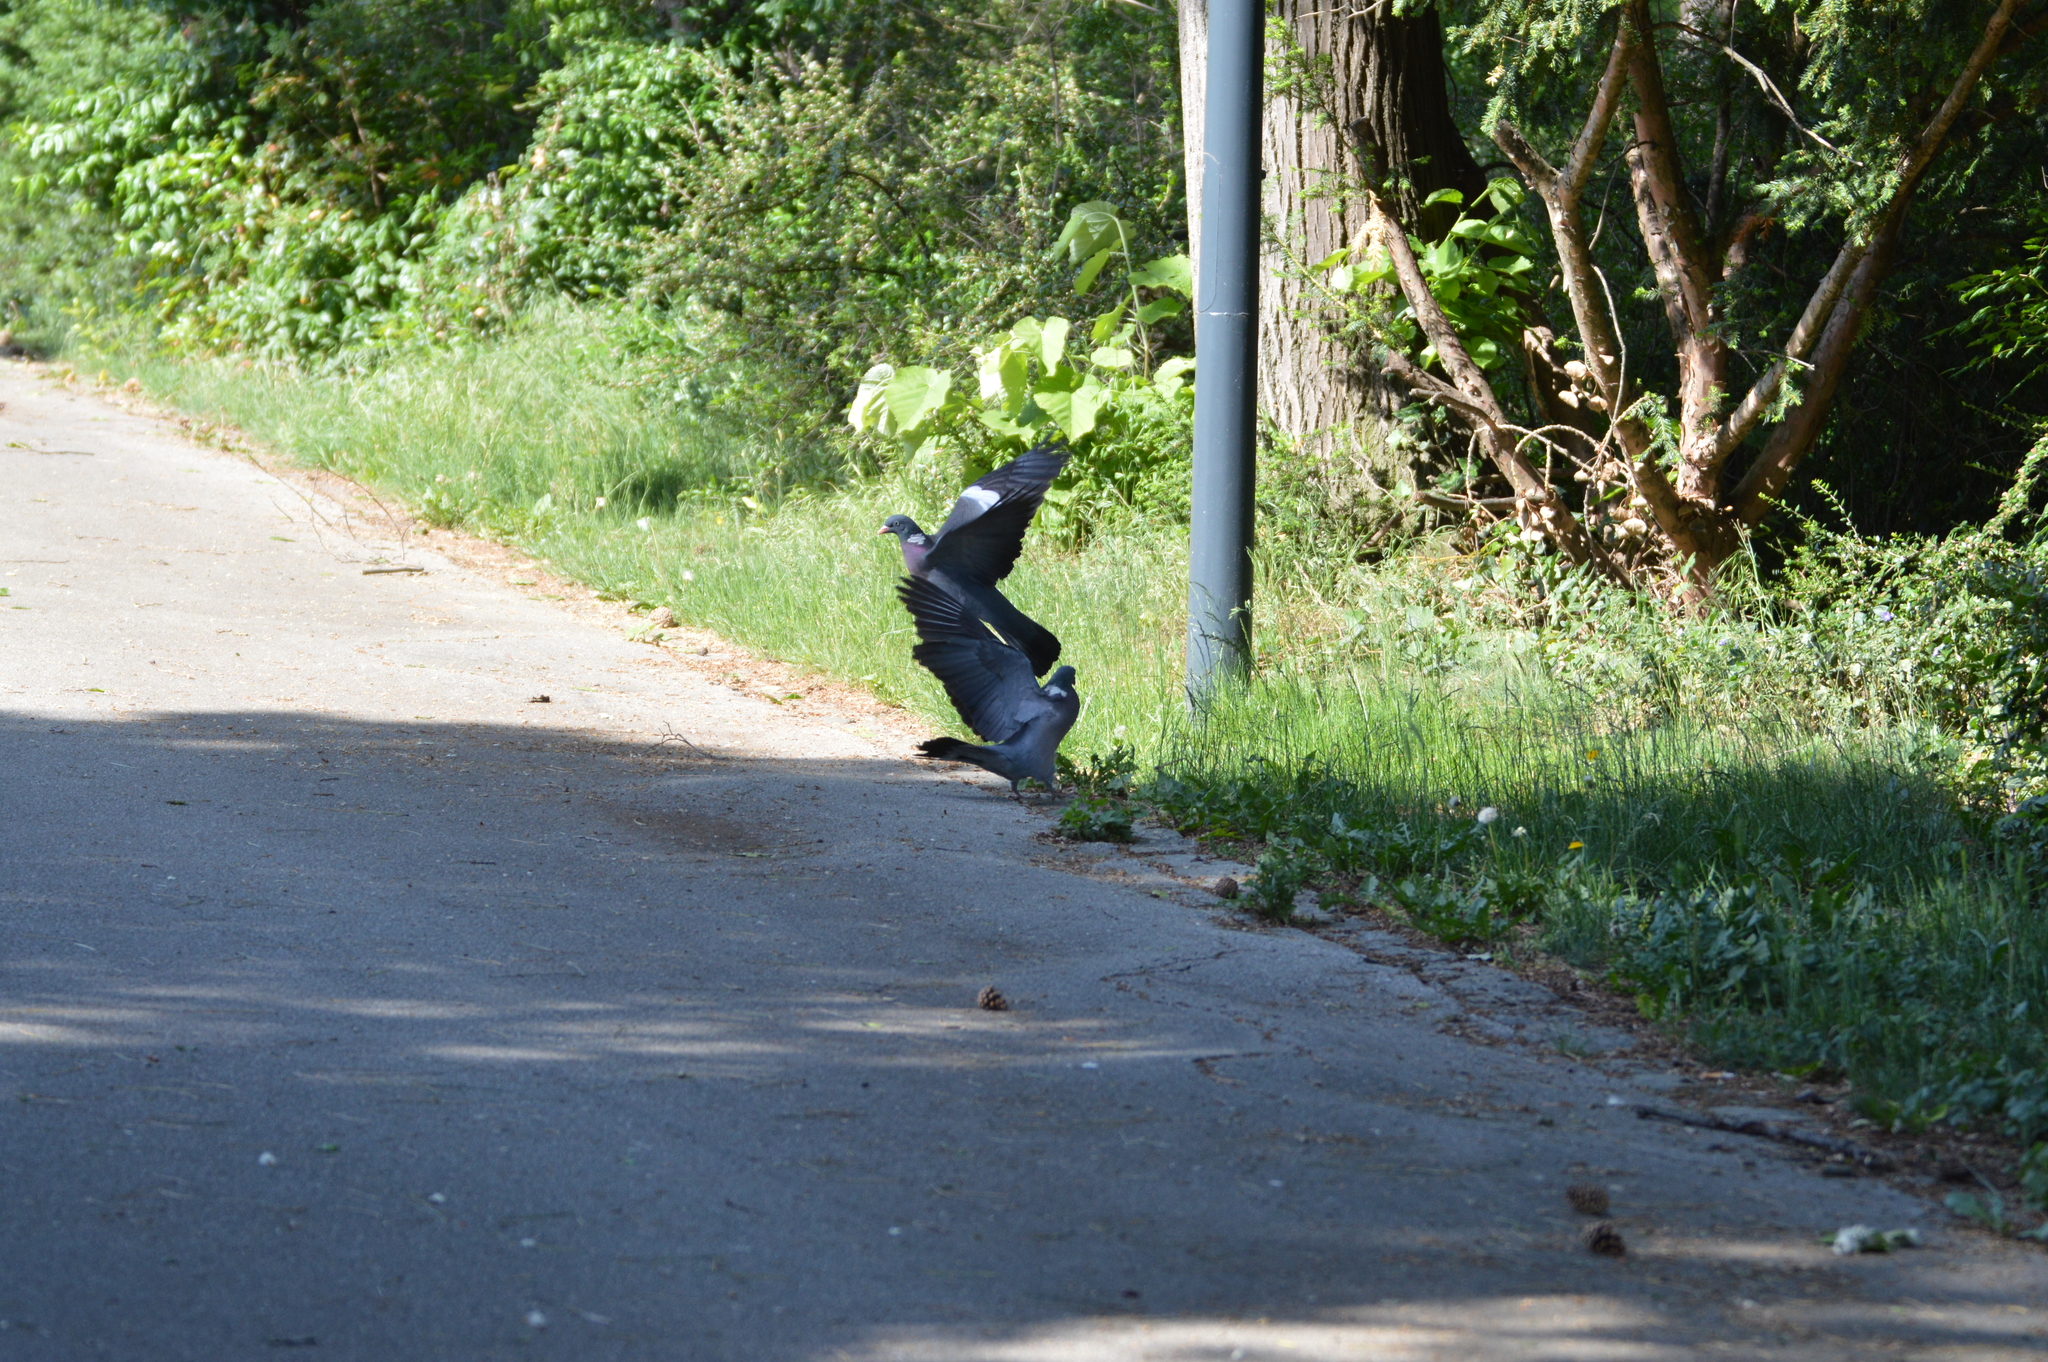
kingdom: Animalia
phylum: Chordata
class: Aves
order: Columbiformes
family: Columbidae
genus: Columba
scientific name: Columba palumbus
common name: Common wood pigeon
